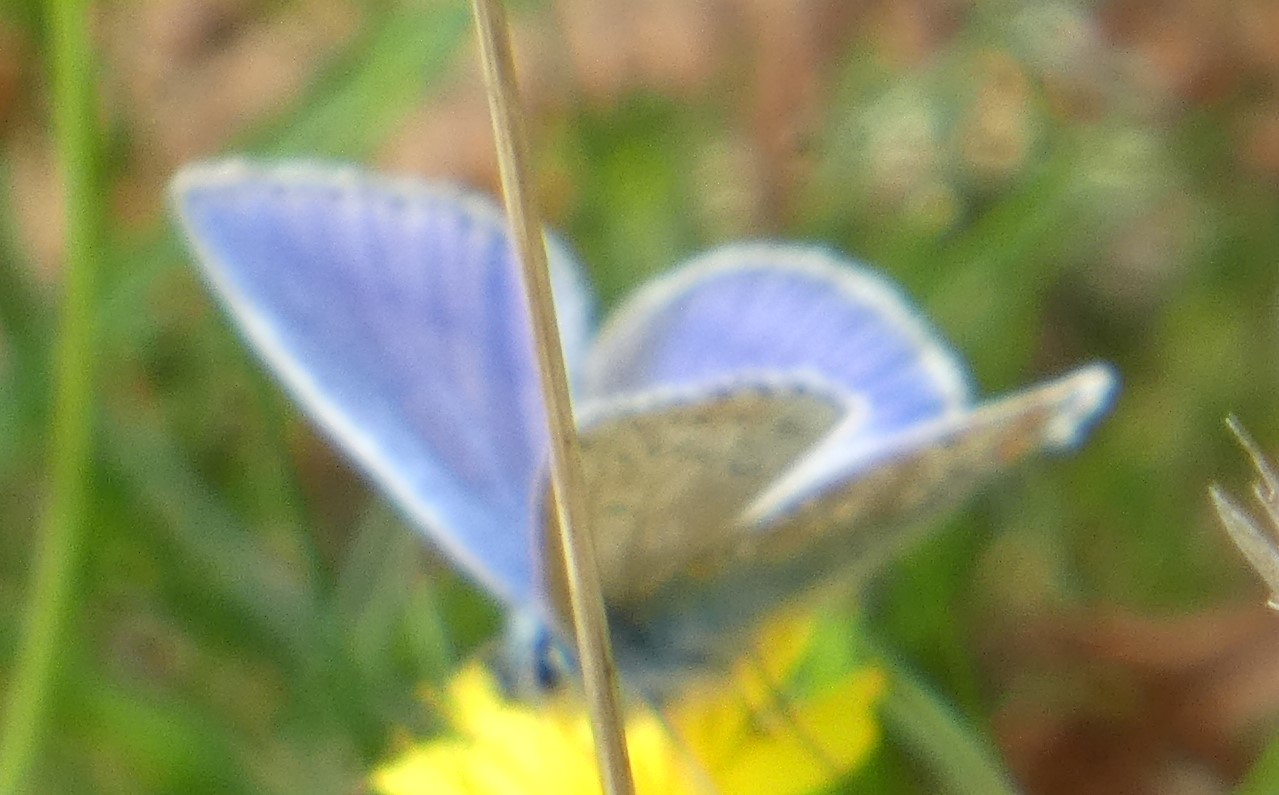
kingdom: Animalia
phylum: Arthropoda
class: Insecta
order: Lepidoptera
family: Lycaenidae
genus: Polyommatus
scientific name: Polyommatus icarus
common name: Common blue
